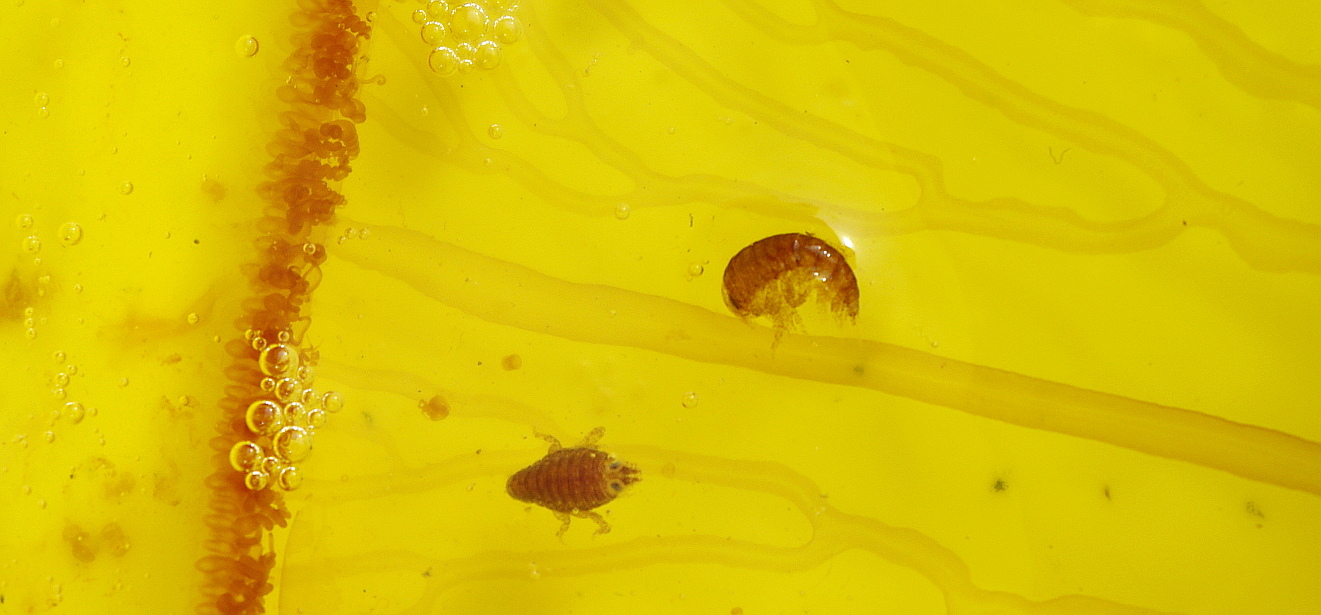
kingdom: Animalia
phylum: Arthropoda
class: Malacostraca
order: Amphipoda
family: Hyperiidae
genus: Hyperia
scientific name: Hyperia galba
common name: Big-eye amphipod
